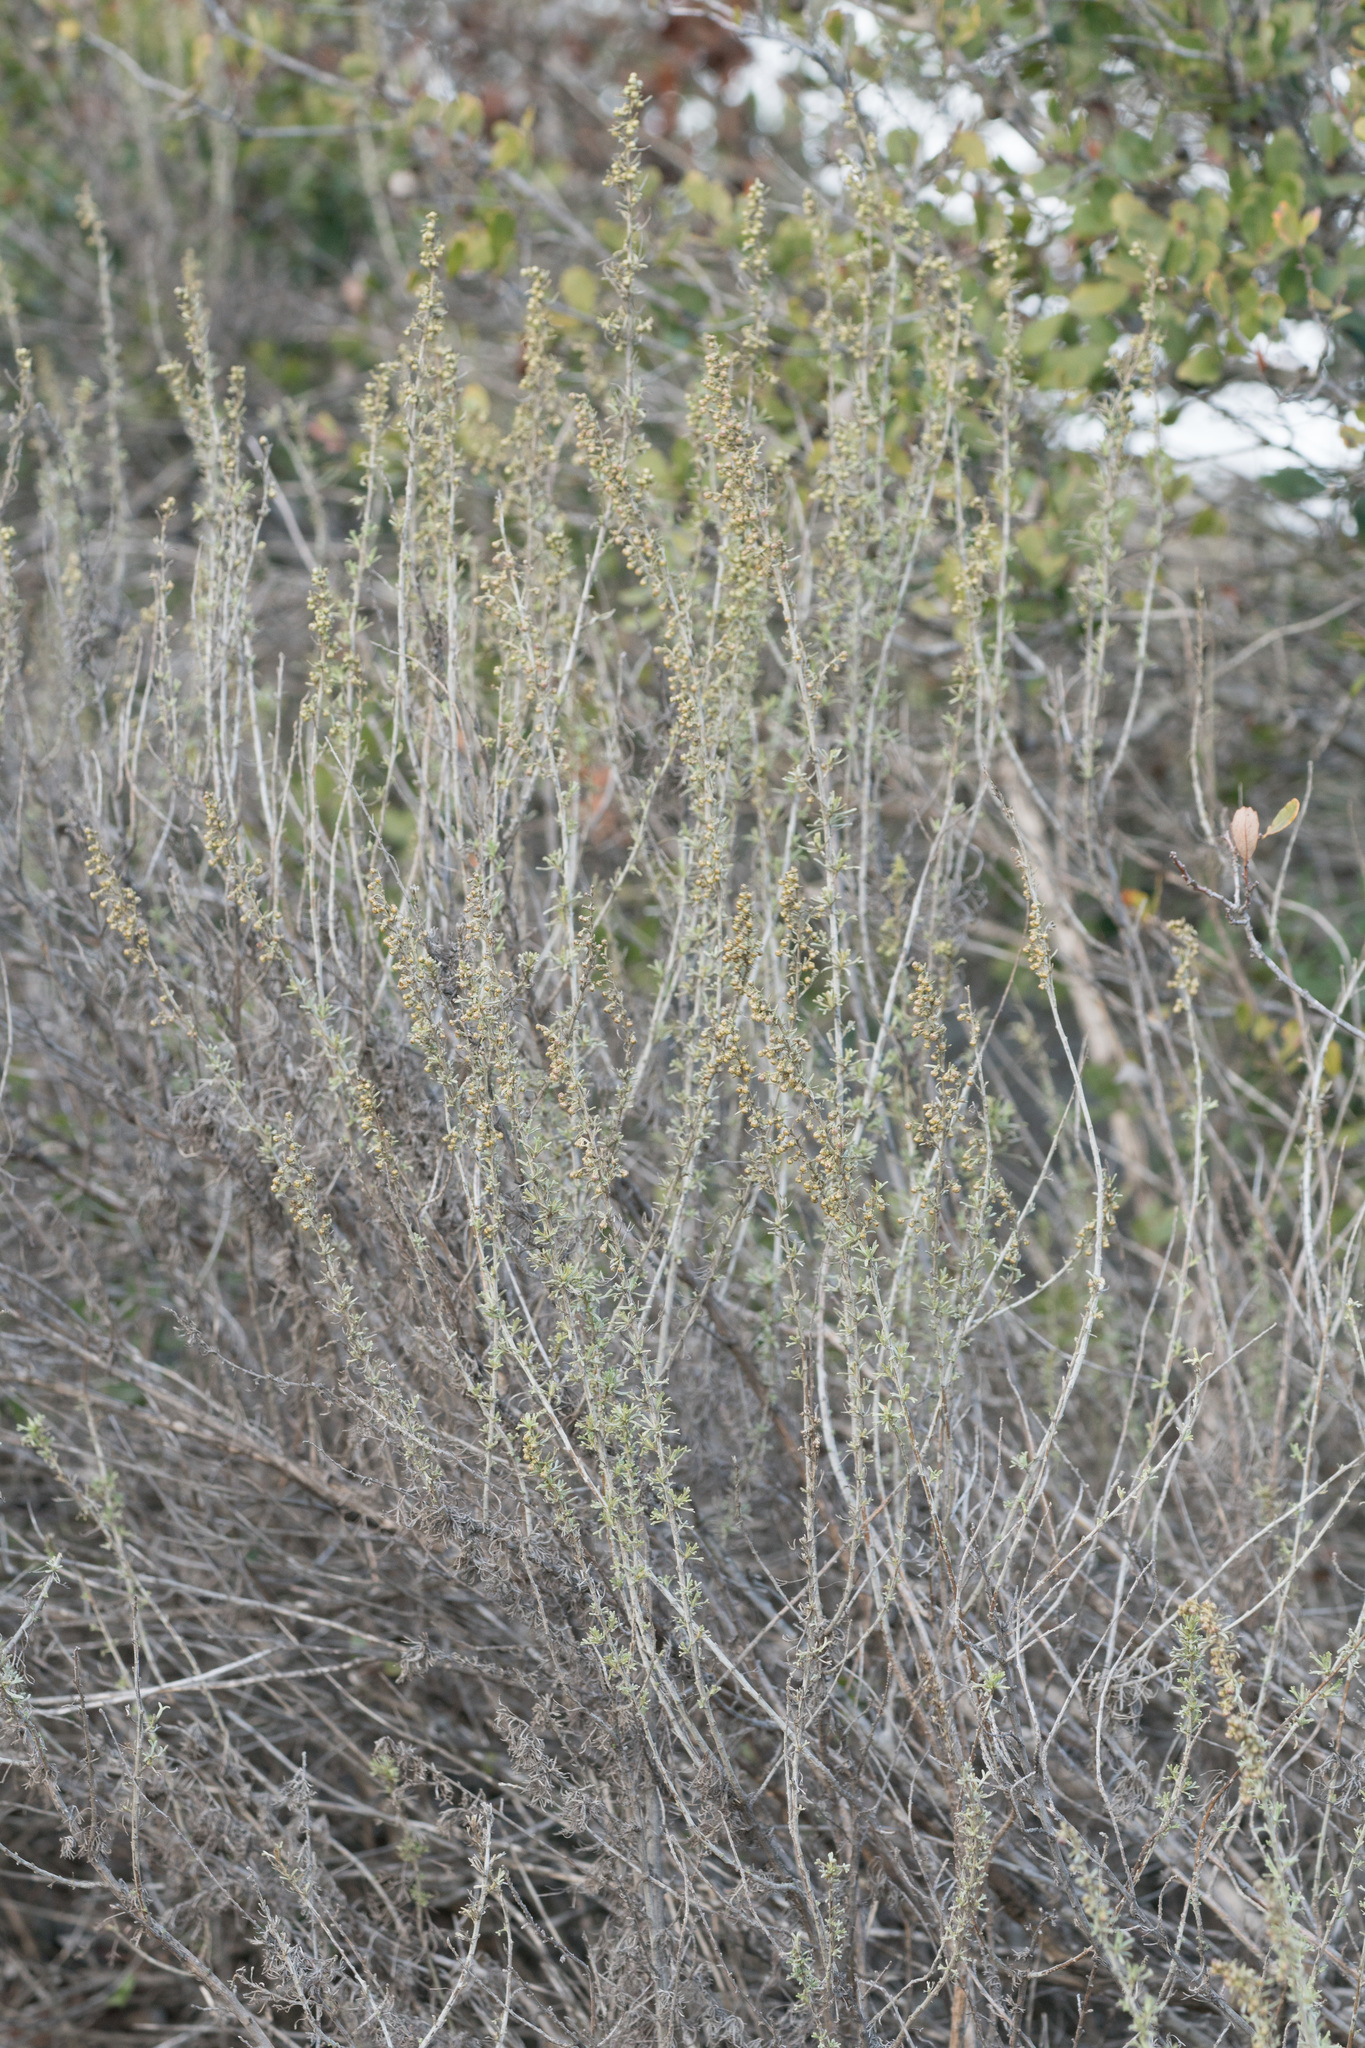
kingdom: Plantae
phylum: Tracheophyta
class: Magnoliopsida
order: Asterales
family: Asteraceae
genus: Artemisia
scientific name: Artemisia californica
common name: California sagebrush
